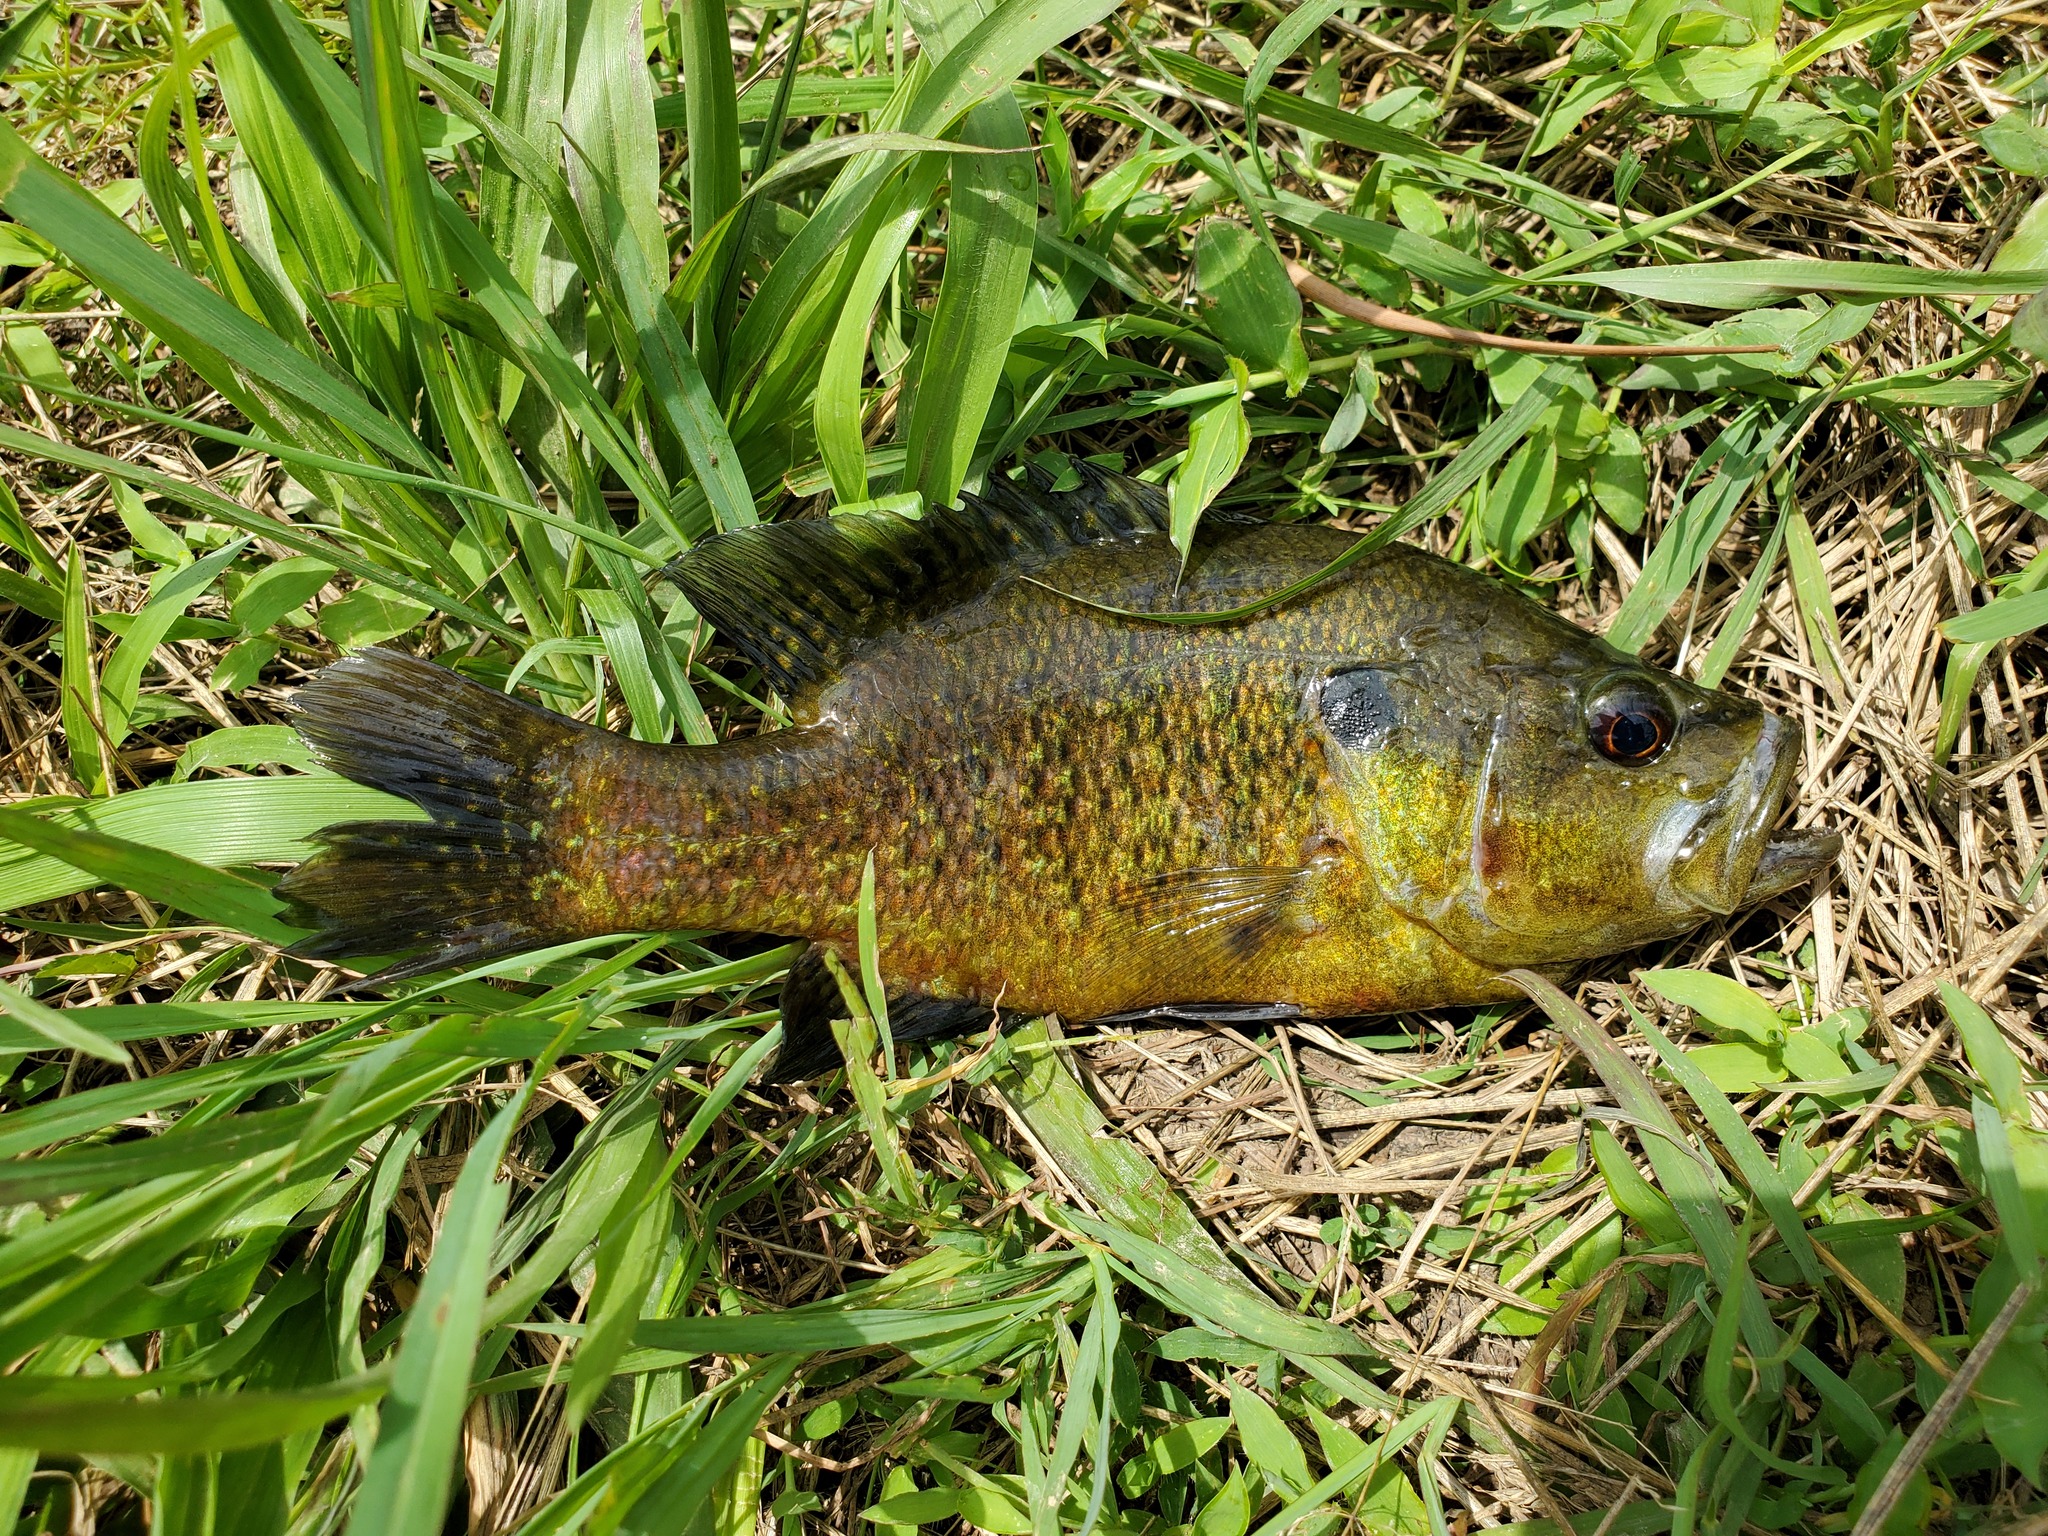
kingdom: Animalia
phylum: Chordata
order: Perciformes
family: Centrarchidae
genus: Lepomis
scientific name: Lepomis gulosus
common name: Warmouth
